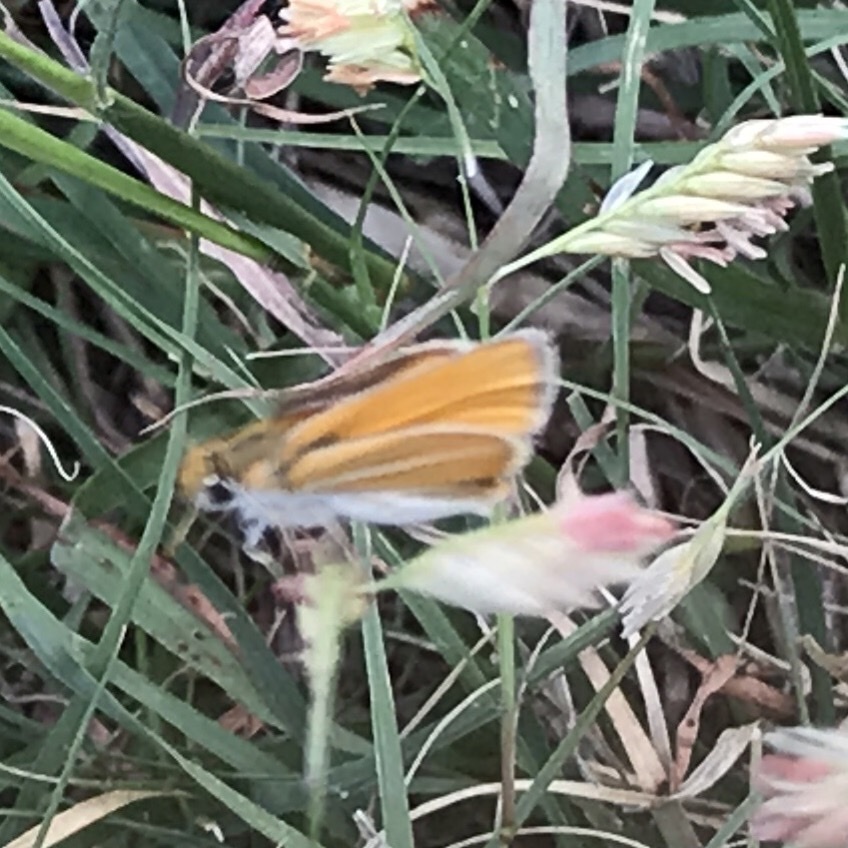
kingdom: Animalia
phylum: Arthropoda
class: Insecta
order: Lepidoptera
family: Hesperiidae
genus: Copaeodes
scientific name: Copaeodes minima
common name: Southern skipperling
